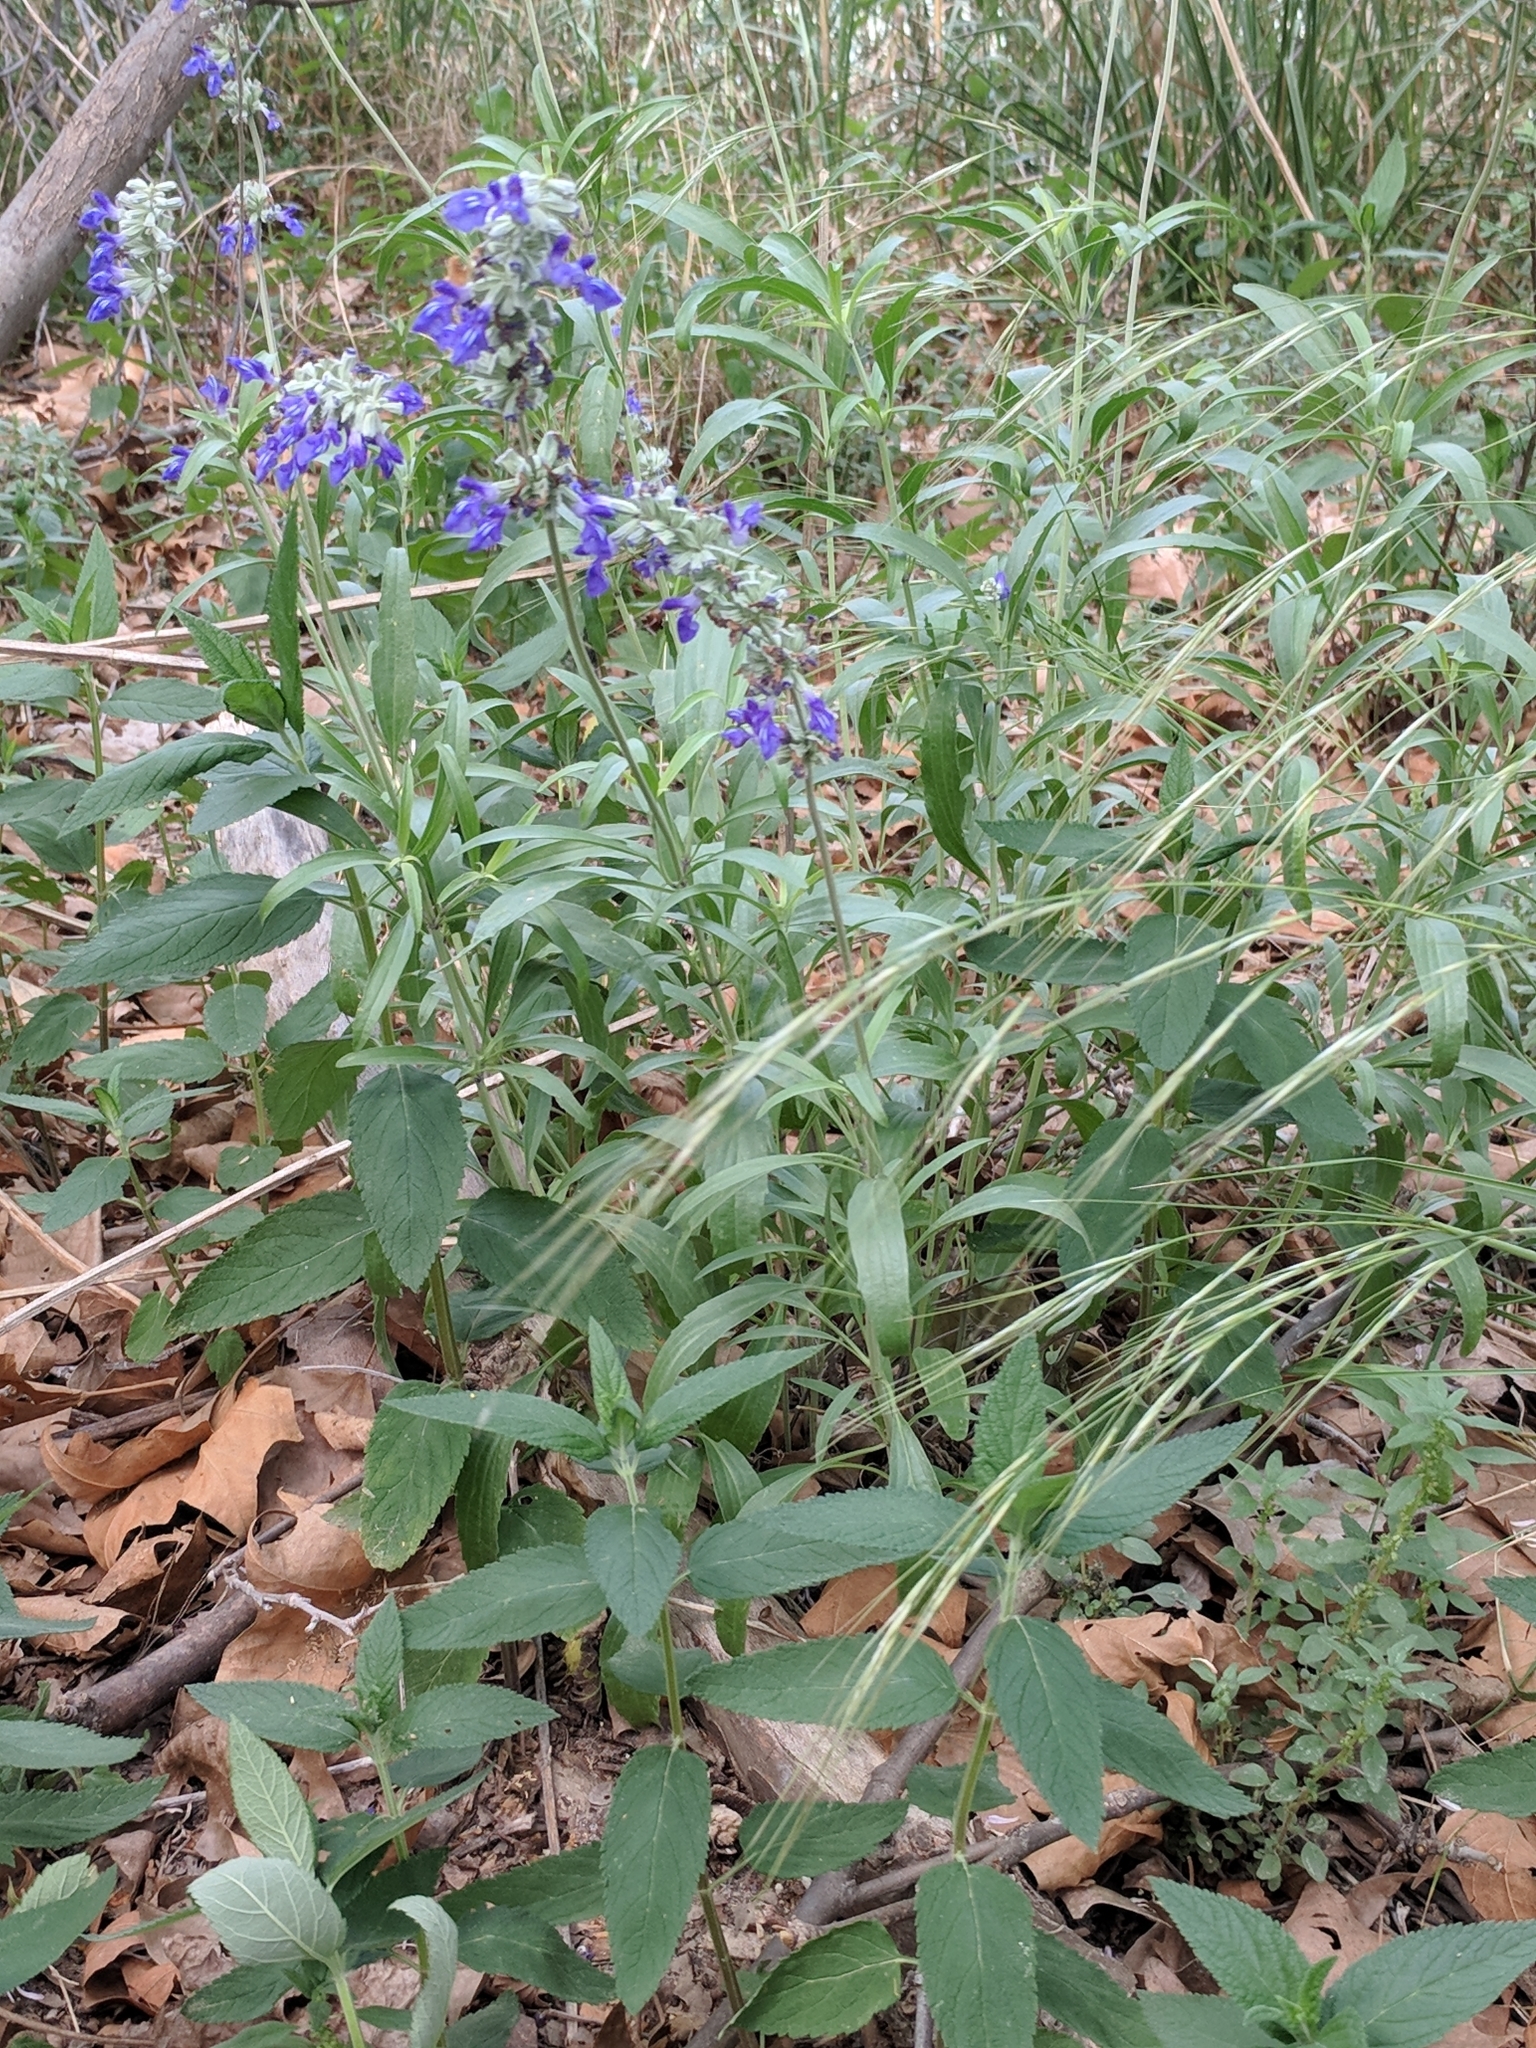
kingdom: Plantae
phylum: Tracheophyta
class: Magnoliopsida
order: Lamiales
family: Lamiaceae
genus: Salvia
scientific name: Salvia farinacea
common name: Mealy sage
